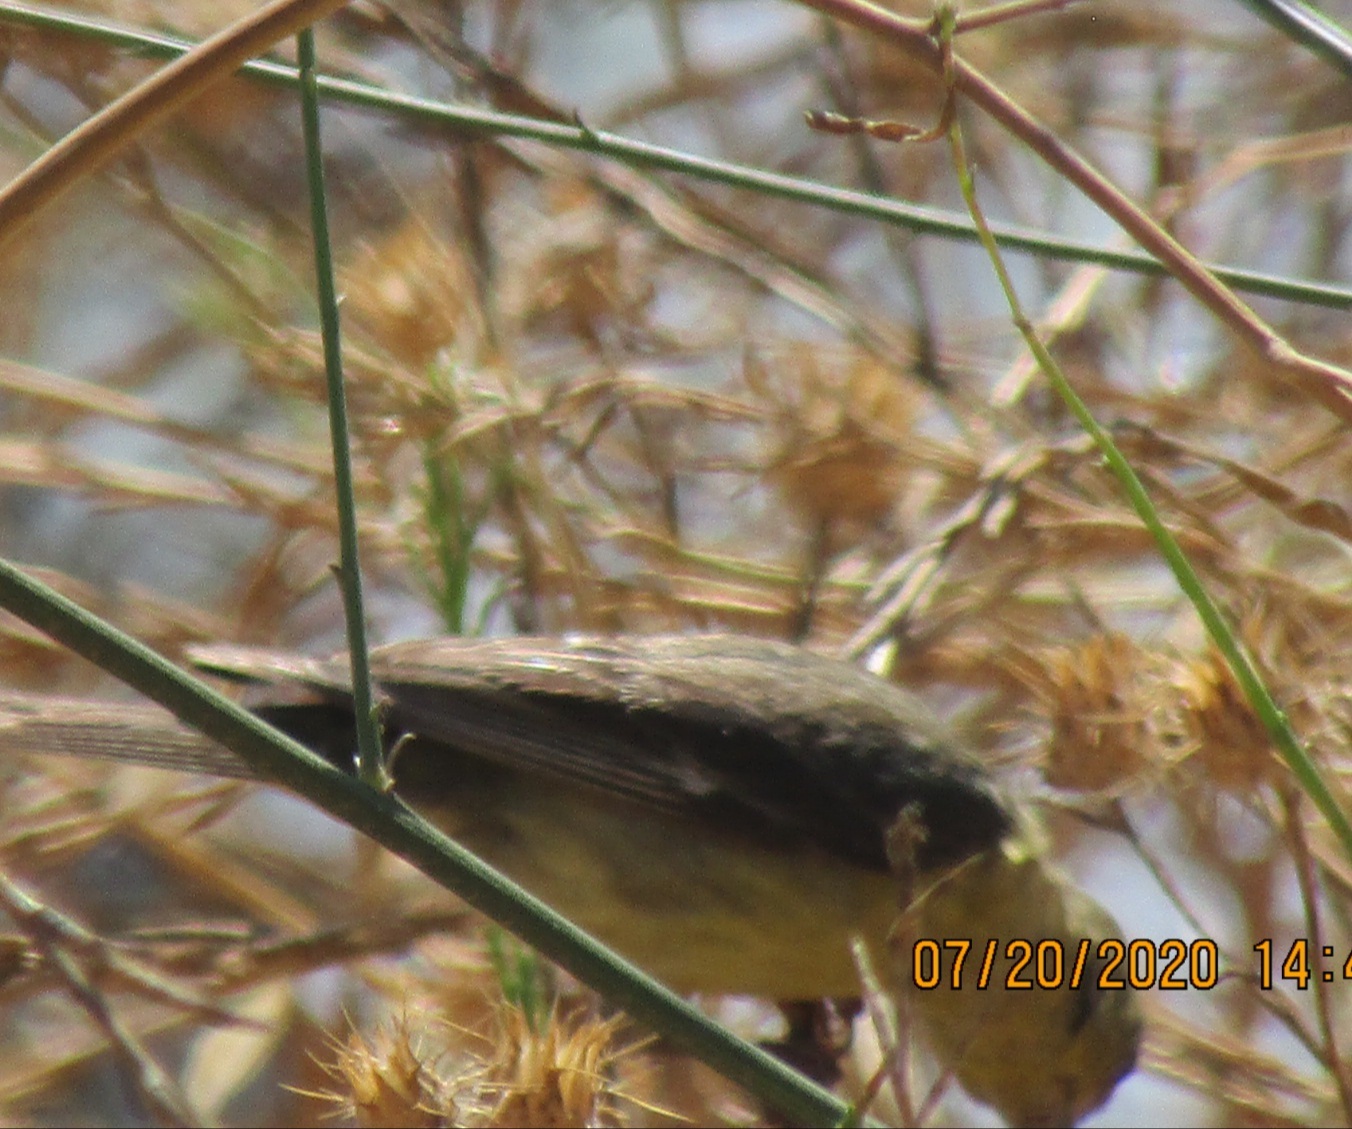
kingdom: Animalia
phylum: Chordata
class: Aves
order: Passeriformes
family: Fringillidae
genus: Spinus
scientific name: Spinus psaltria
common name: Lesser goldfinch
